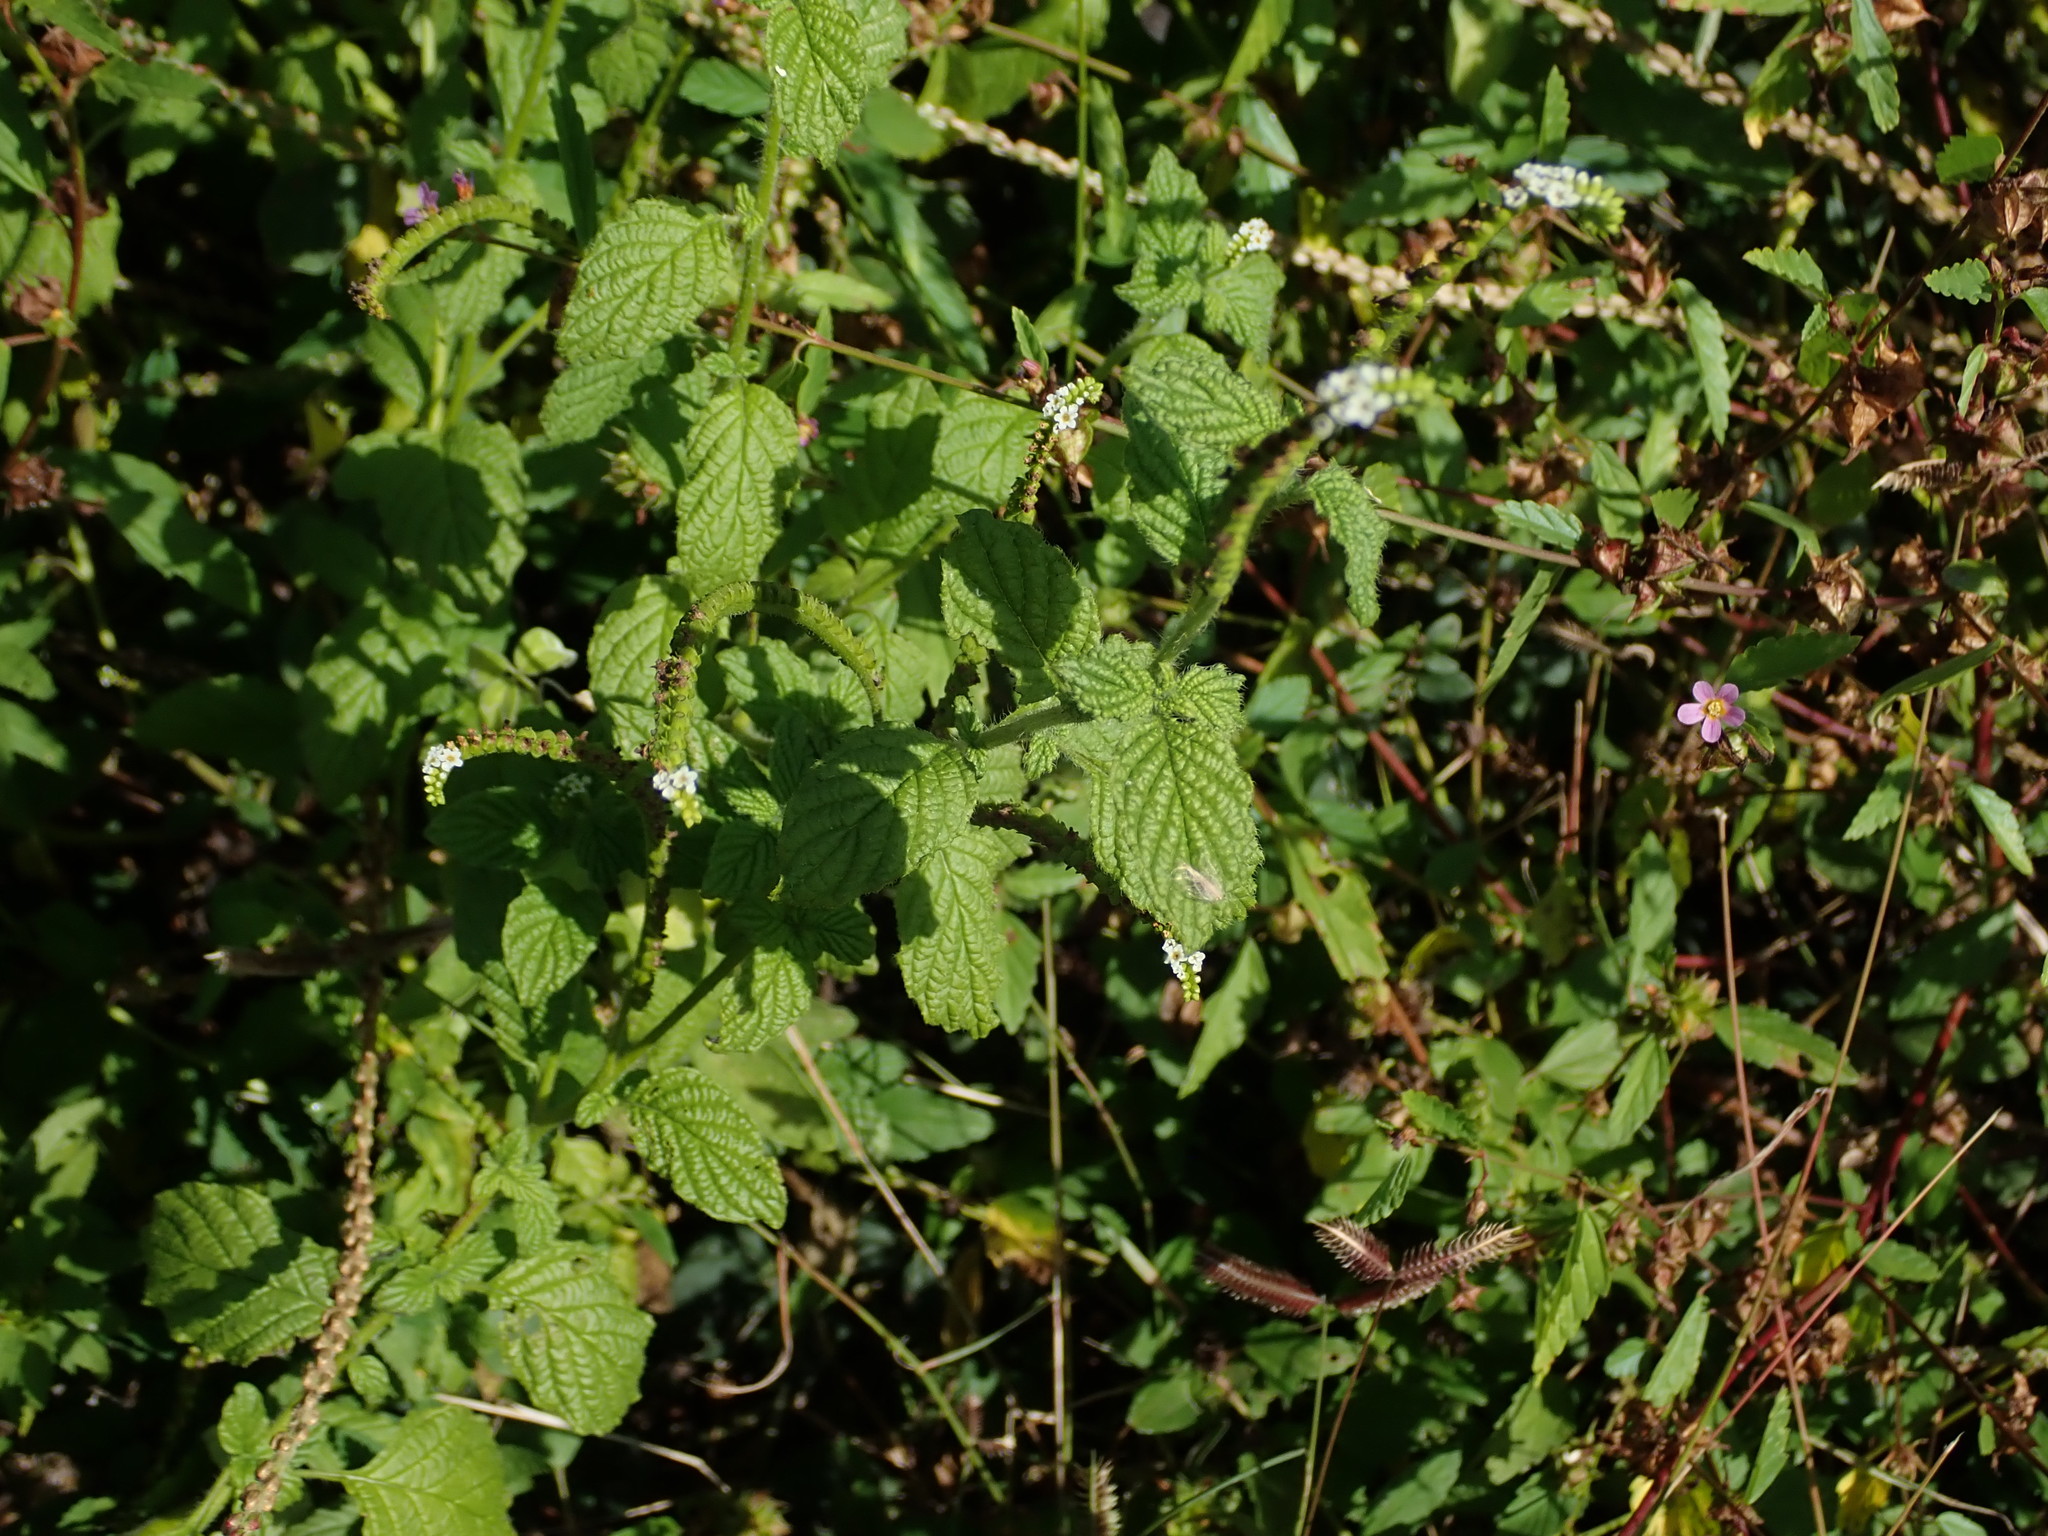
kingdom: Plantae
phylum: Tracheophyta
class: Magnoliopsida
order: Boraginales
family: Heliotropiaceae
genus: Heliotropium
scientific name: Heliotropium angiospermum
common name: Eye bright
